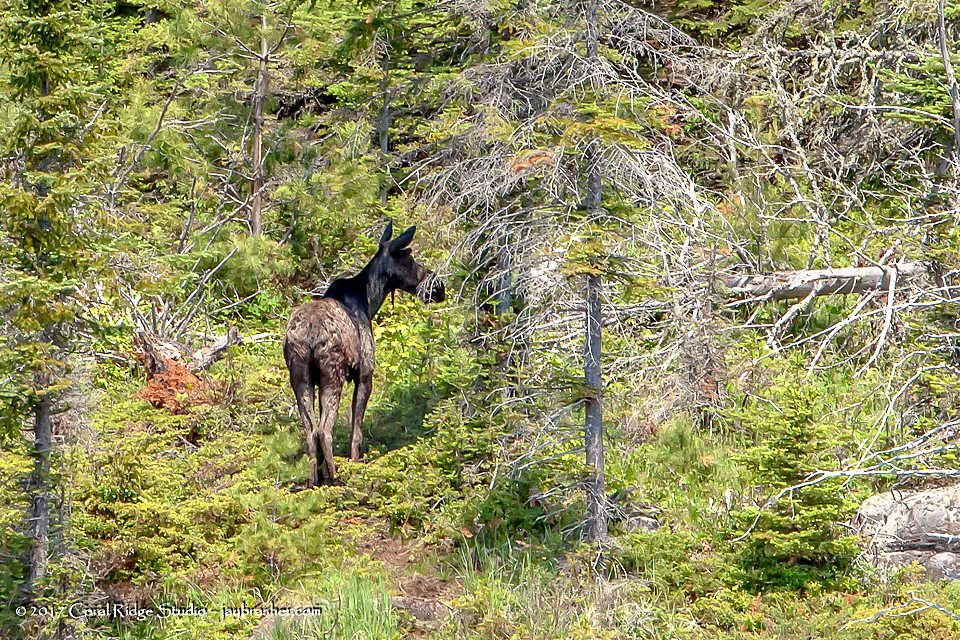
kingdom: Animalia
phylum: Chordata
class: Mammalia
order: Artiodactyla
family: Cervidae
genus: Alces
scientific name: Alces alces
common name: Moose
